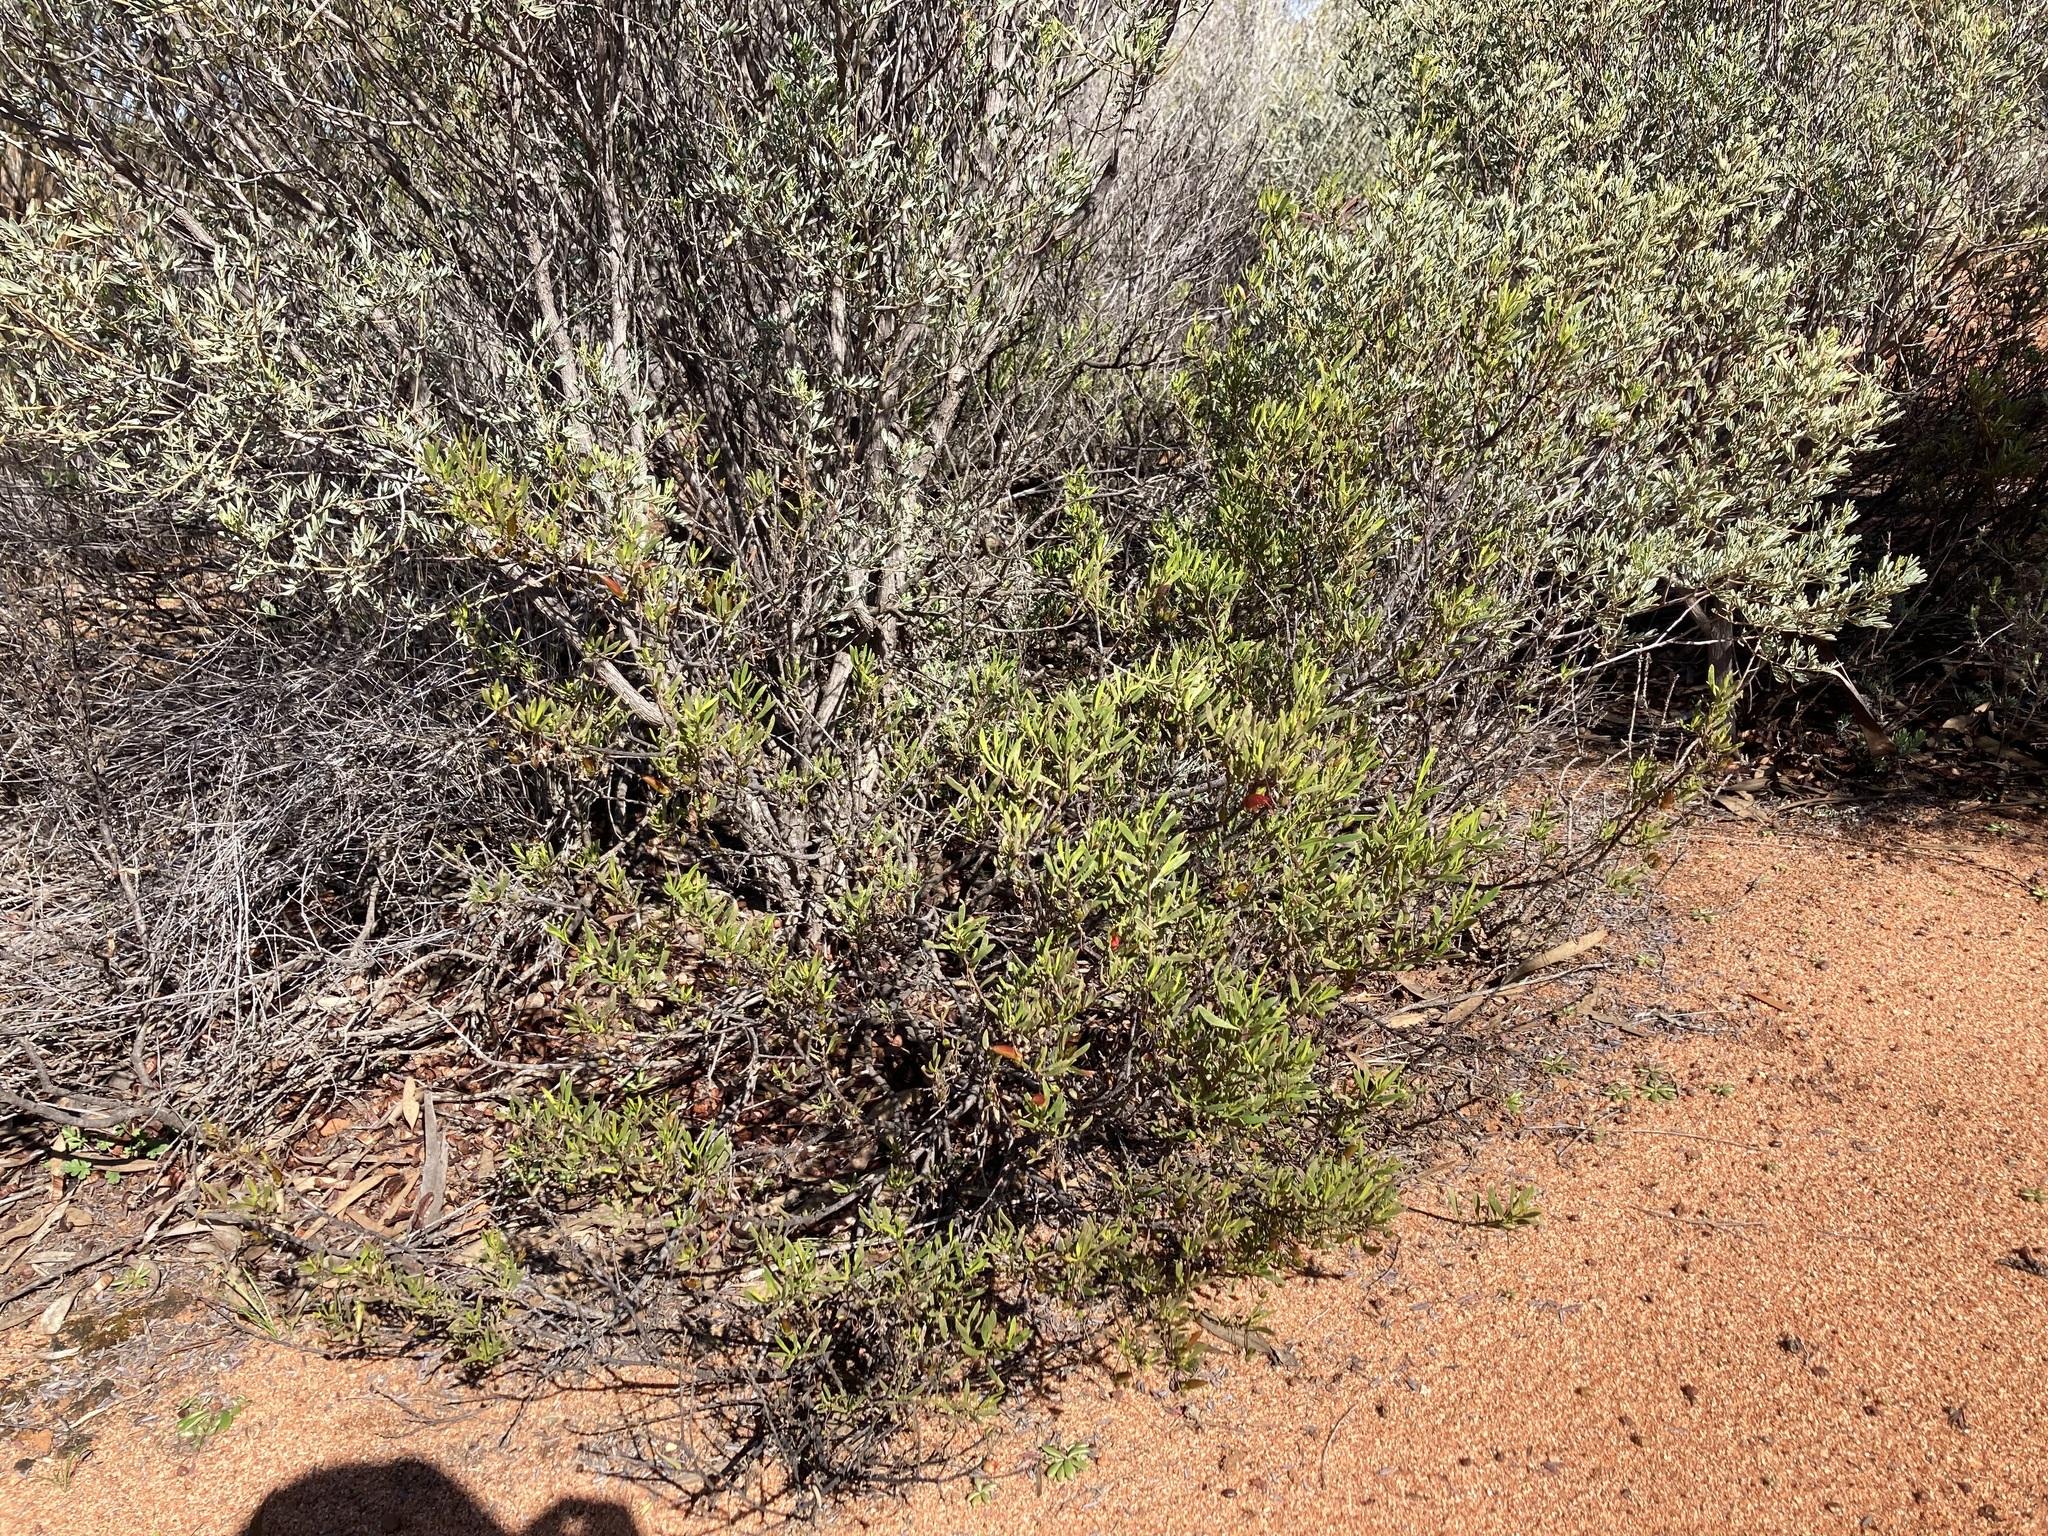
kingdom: Plantae
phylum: Tracheophyta
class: Magnoliopsida
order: Lamiales
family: Scrophulariaceae
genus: Eremophila
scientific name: Eremophila decipiens
